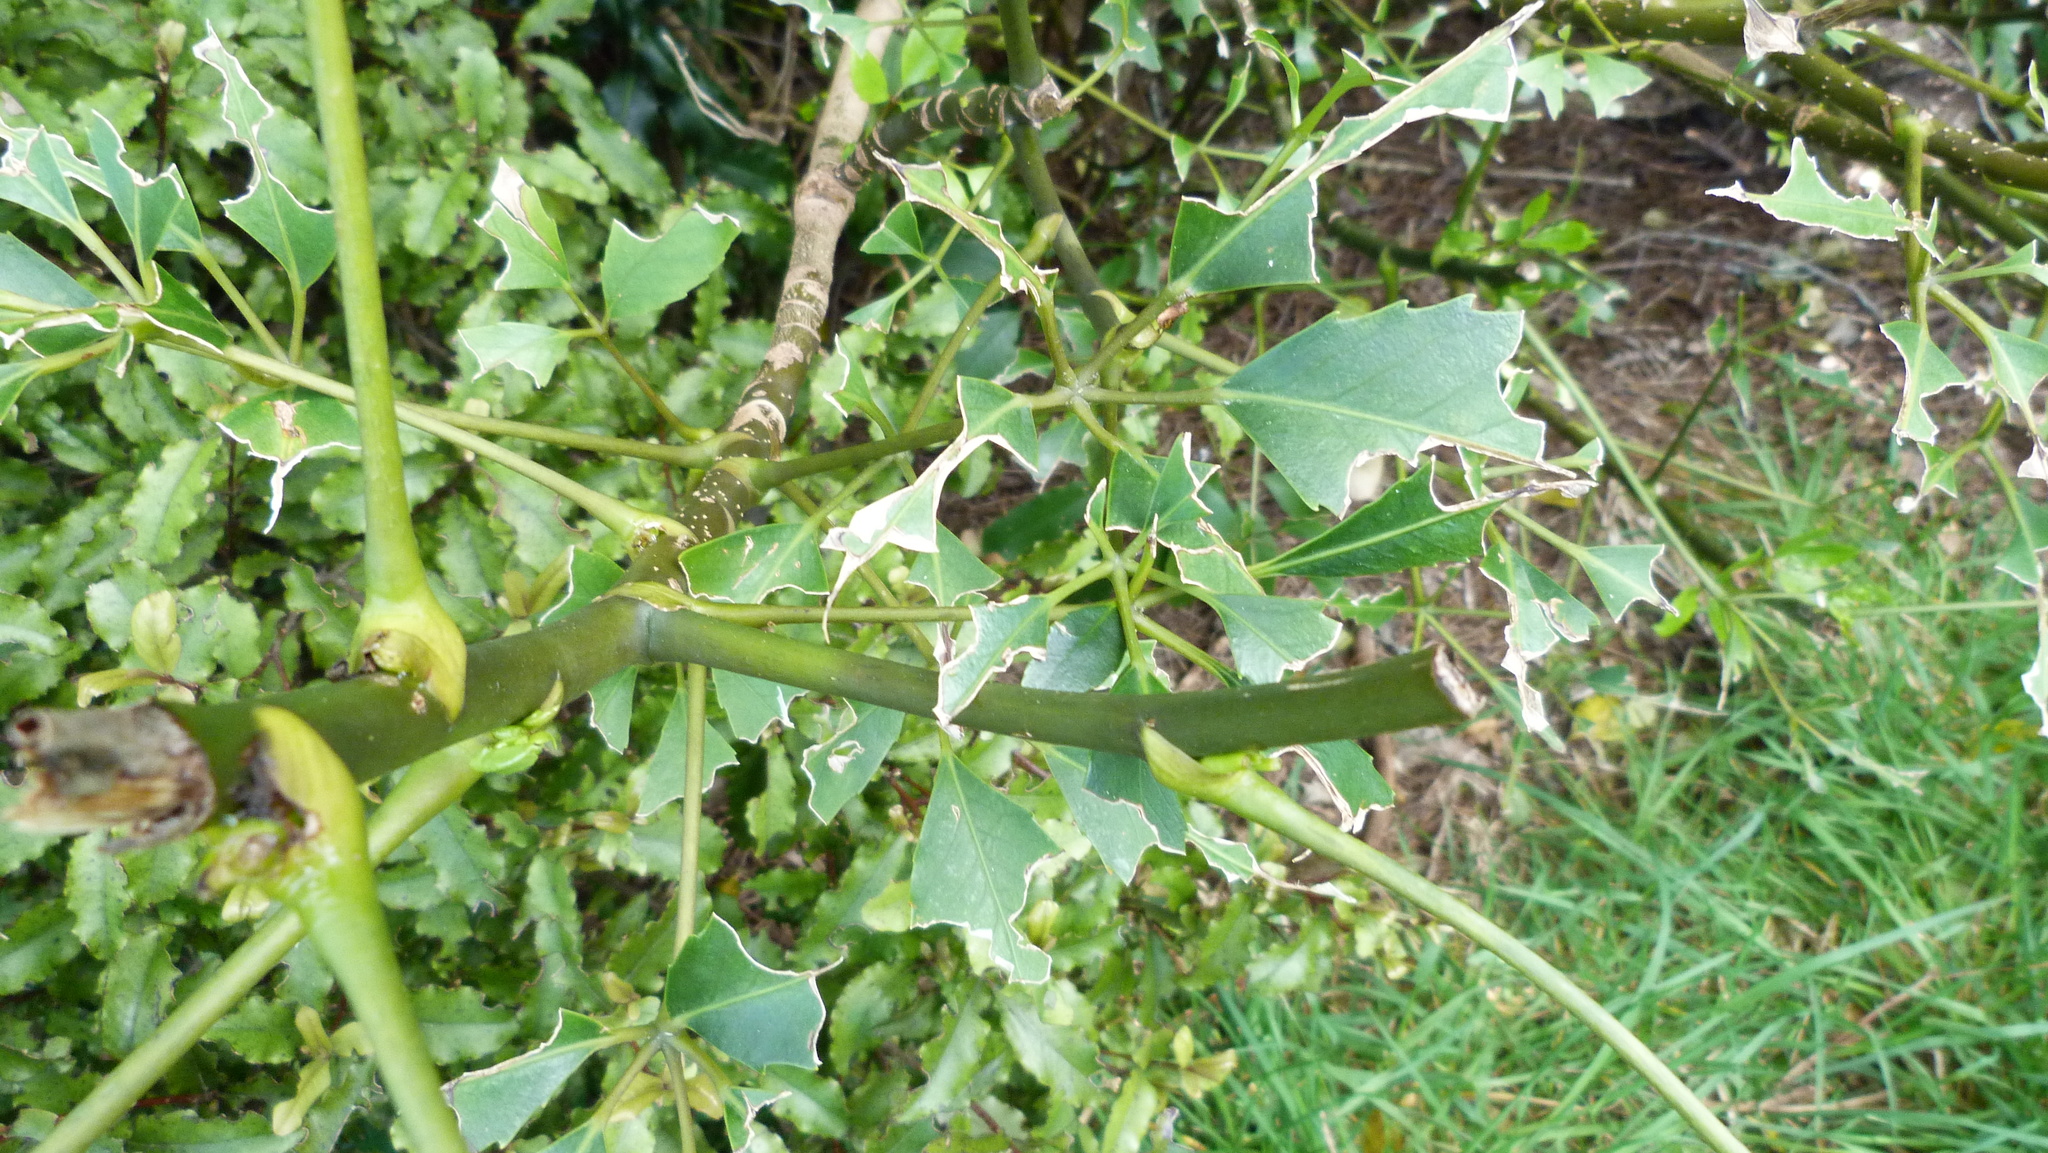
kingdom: Plantae
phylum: Tracheophyta
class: Magnoliopsida
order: Apiales
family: Araliaceae
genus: Neopanax
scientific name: Neopanax arboreus
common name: Five-fingers
